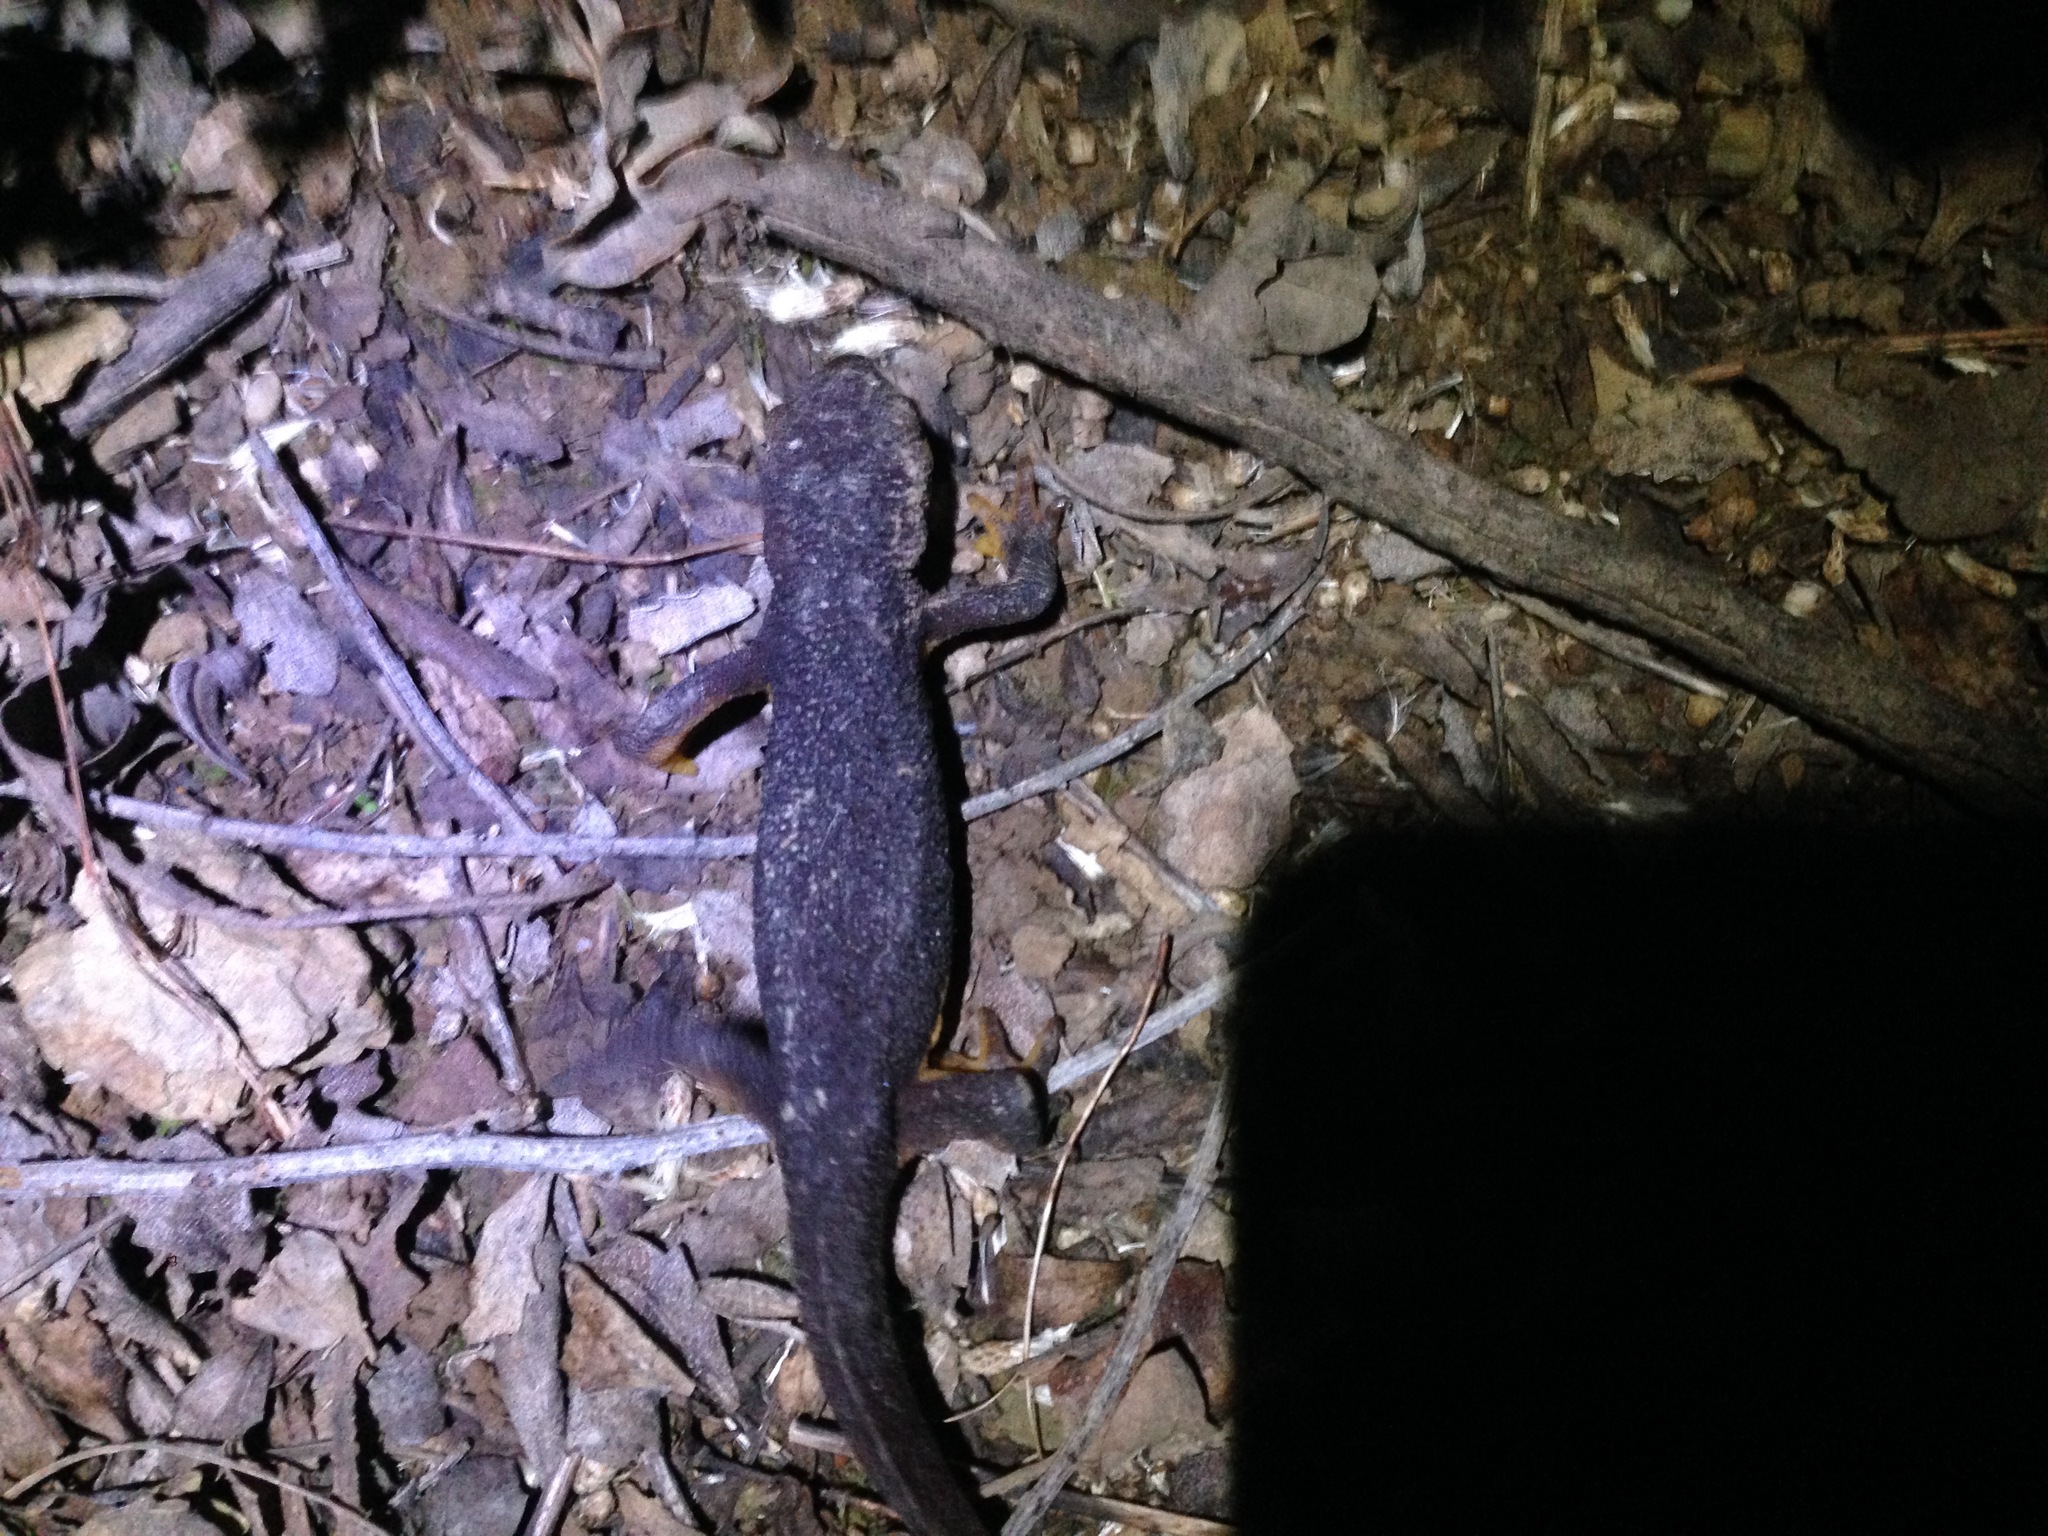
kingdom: Animalia
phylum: Chordata
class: Amphibia
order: Caudata
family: Salamandridae
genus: Taricha
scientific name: Taricha torosa
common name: California newt
